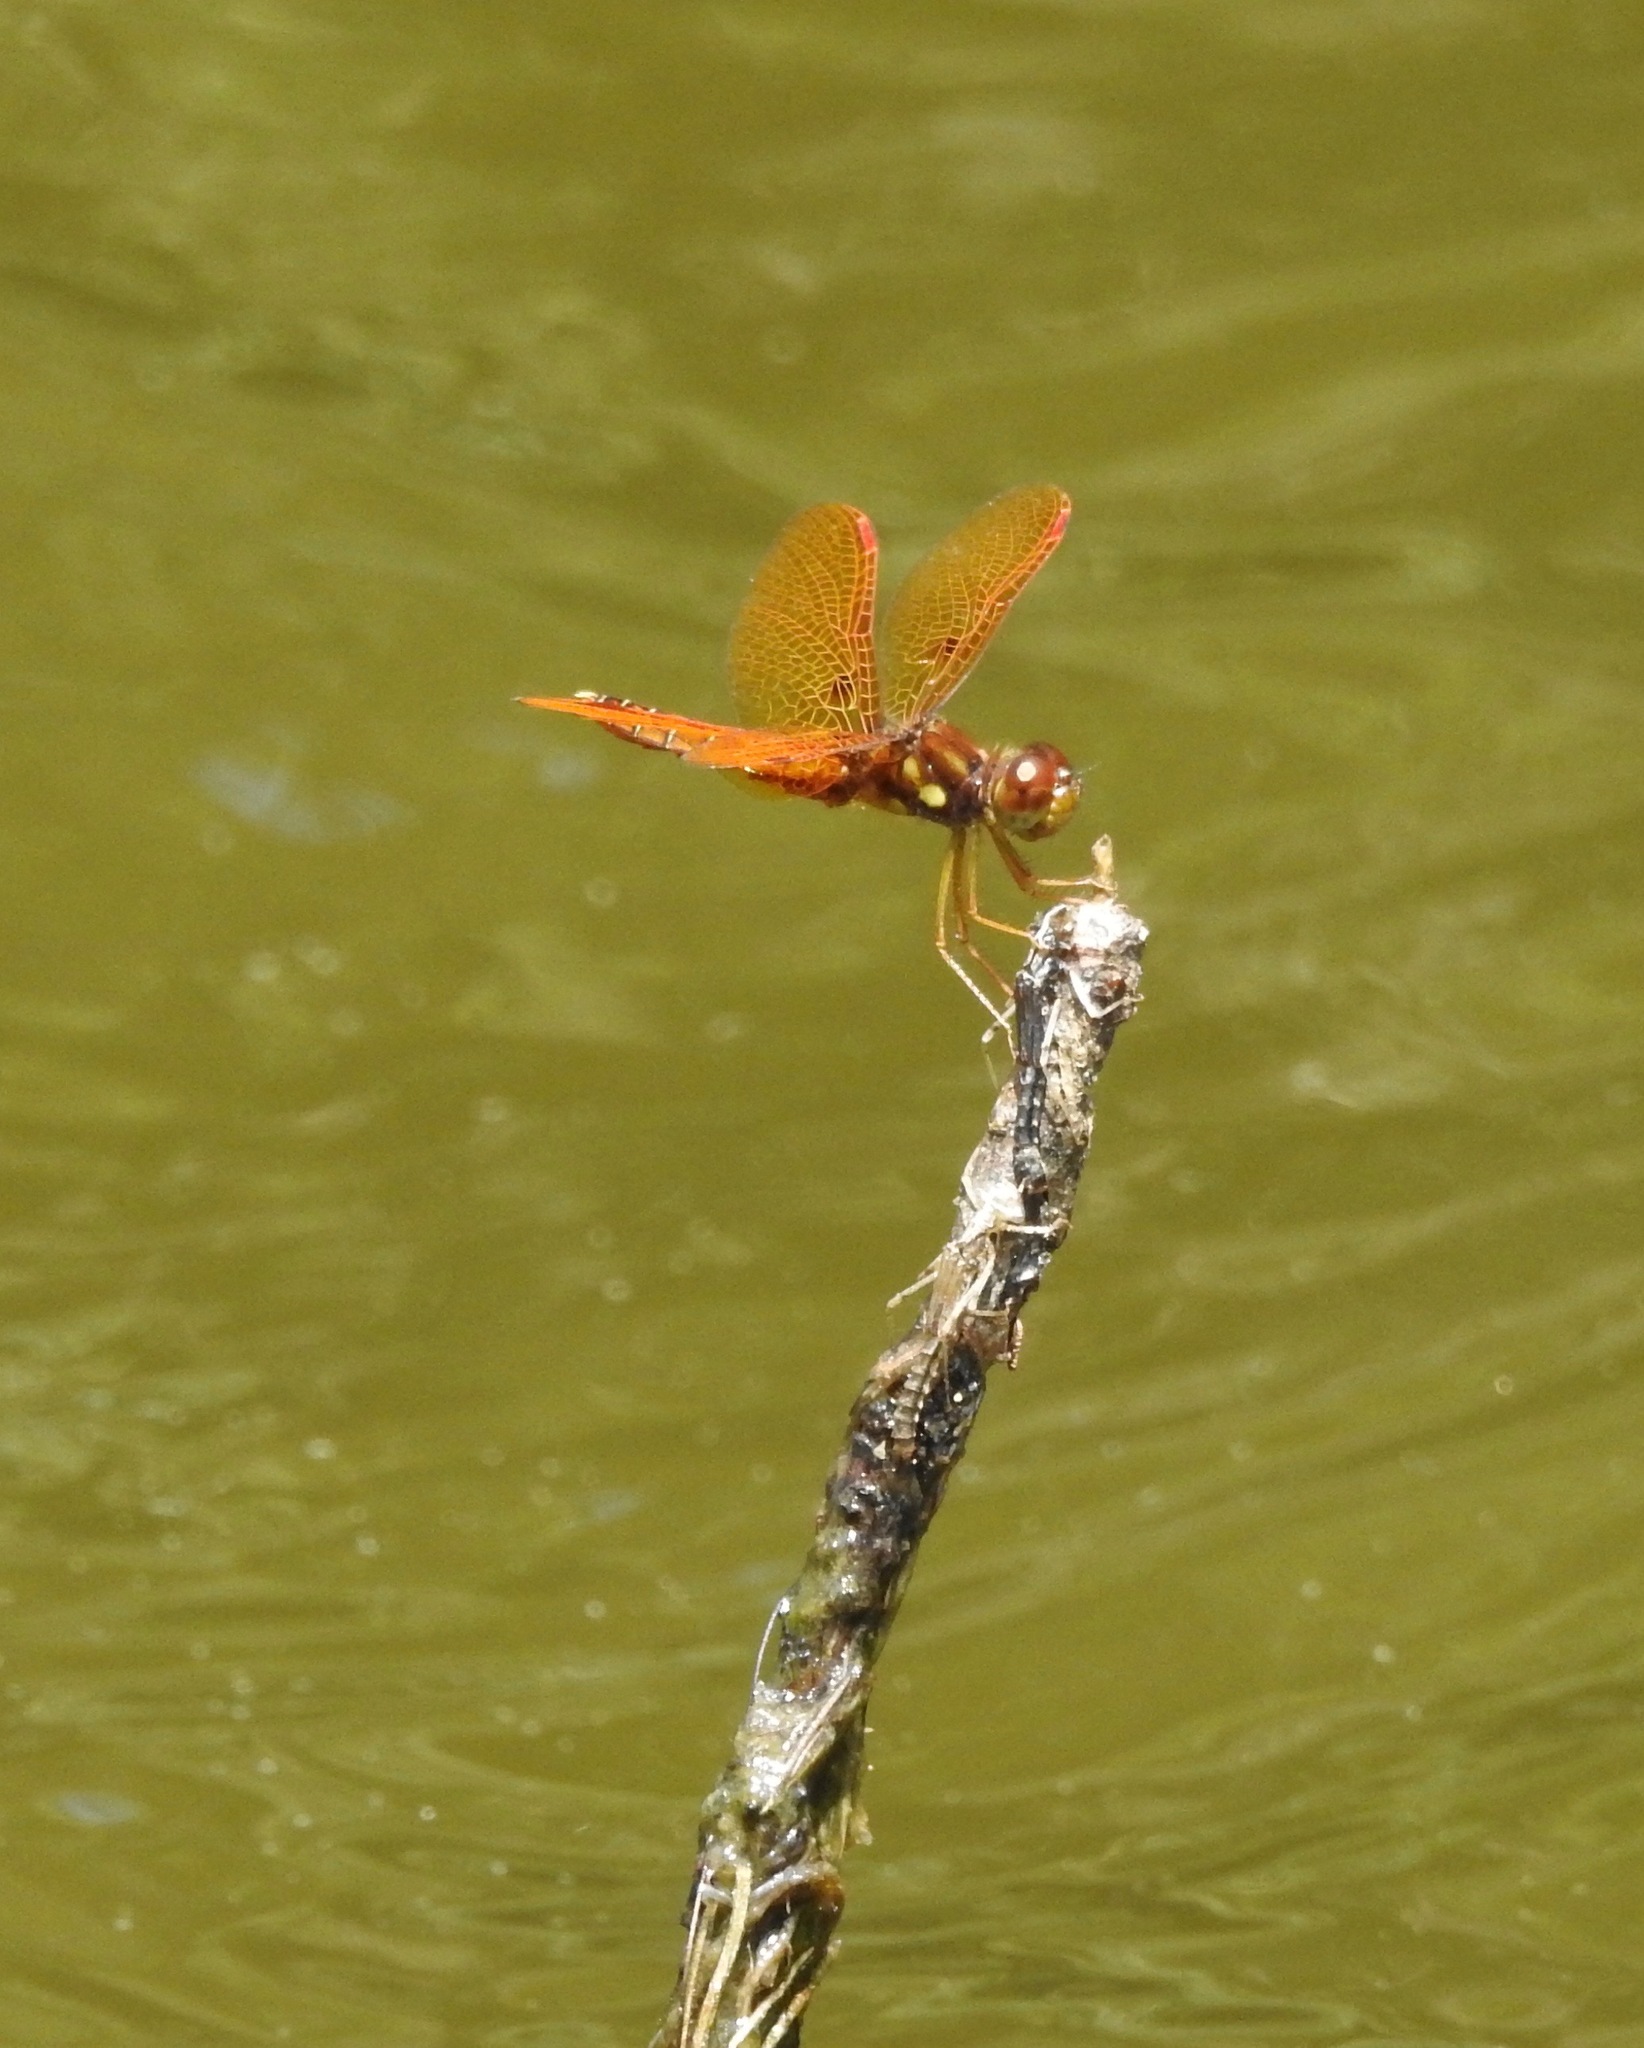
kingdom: Animalia
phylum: Arthropoda
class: Insecta
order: Odonata
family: Libellulidae
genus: Perithemis
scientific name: Perithemis tenera
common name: Eastern amberwing
